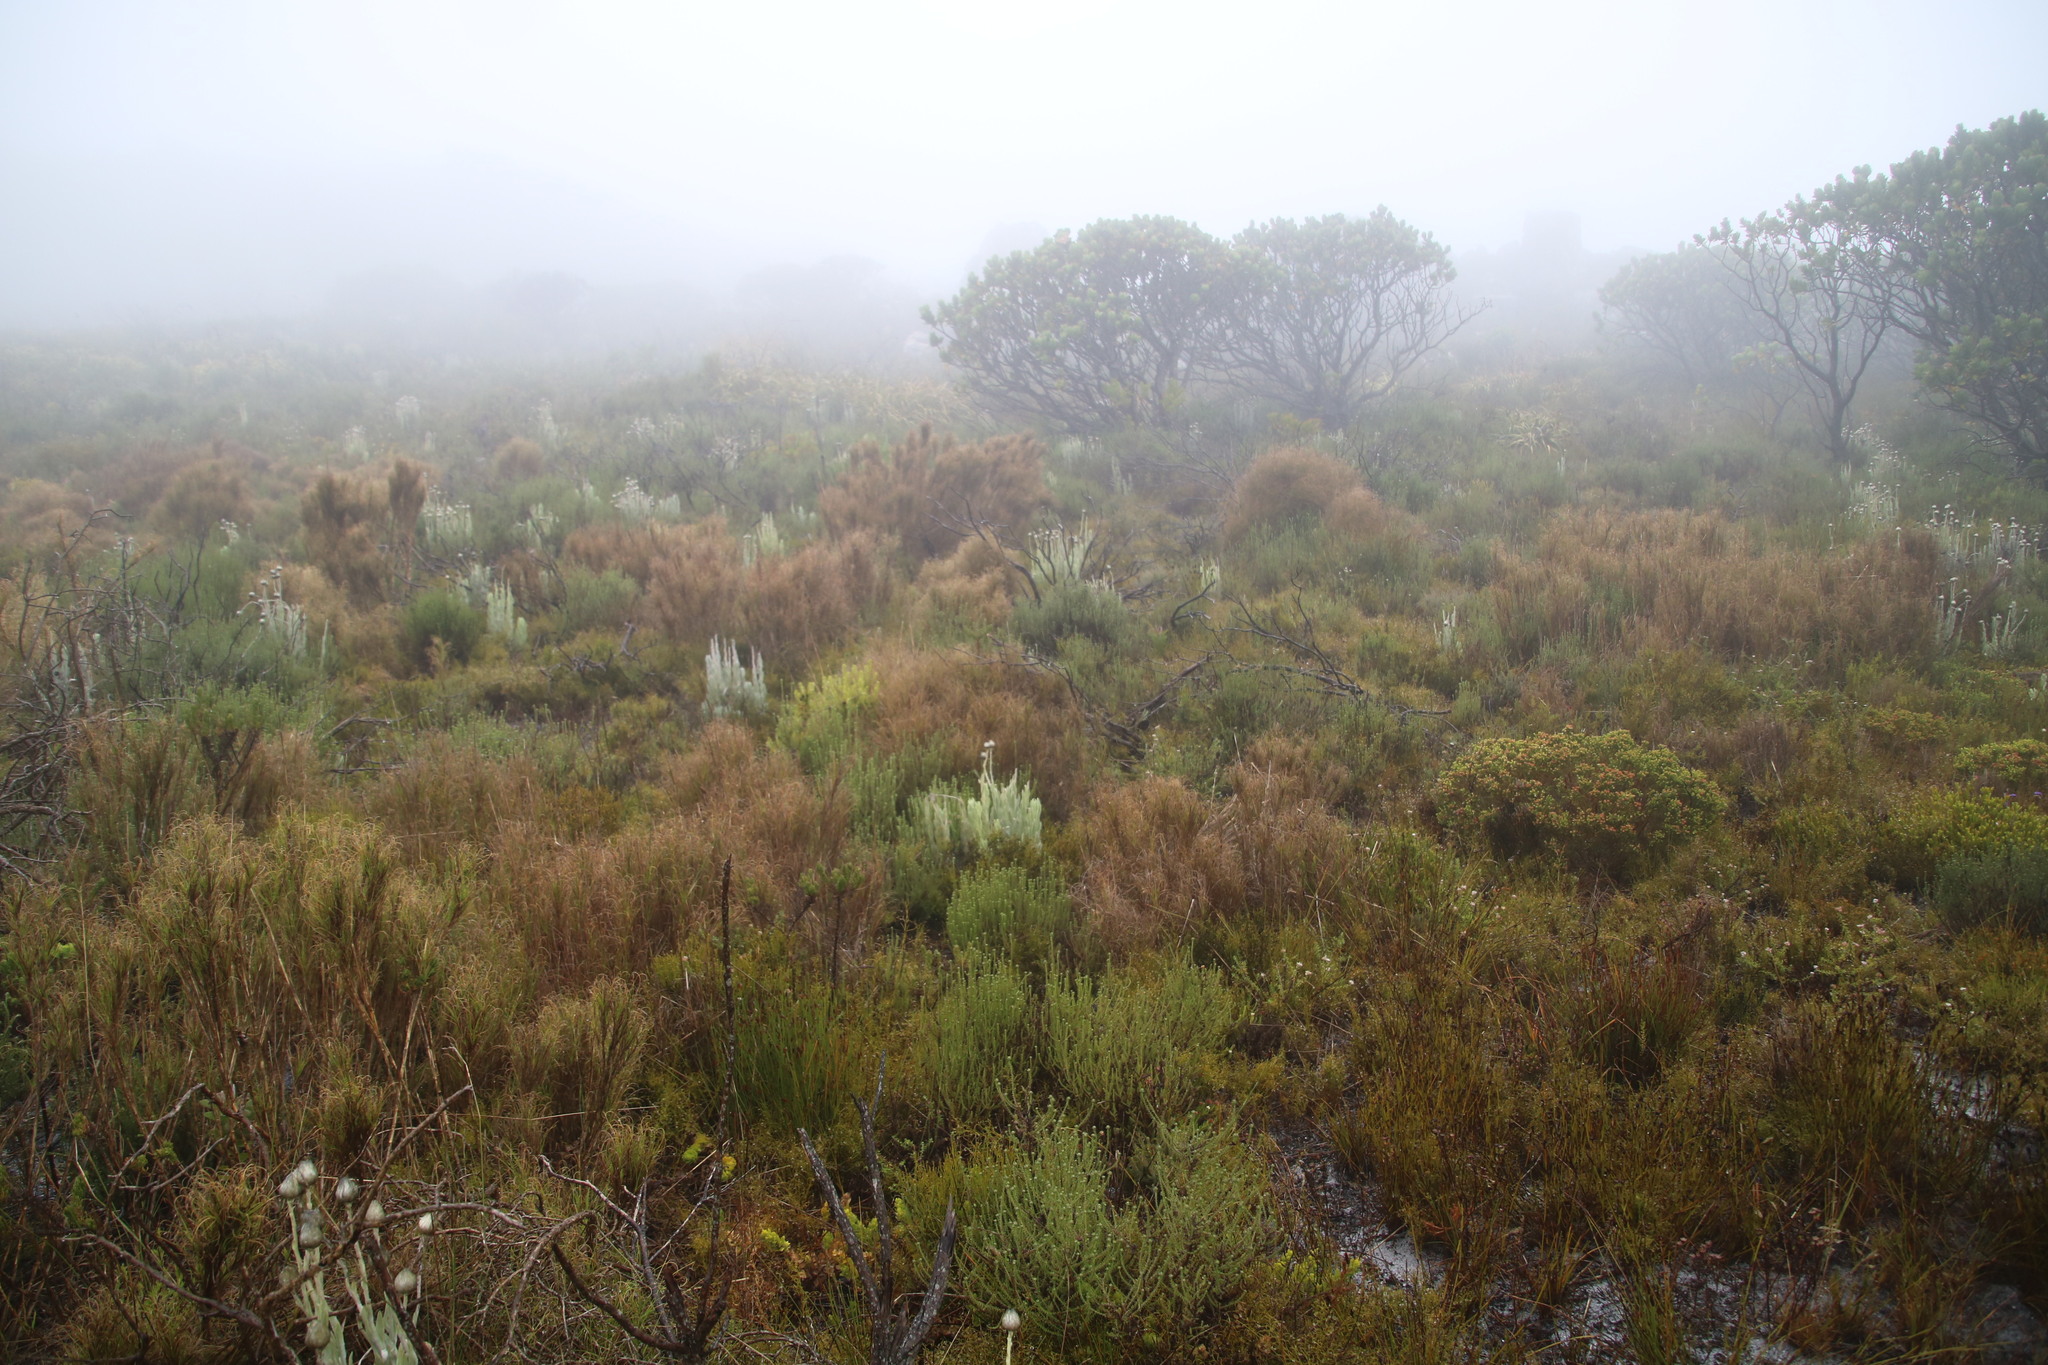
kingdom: Plantae
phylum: Tracheophyta
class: Liliopsida
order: Poales
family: Poaceae
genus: Pseudopentameris
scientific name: Pseudopentameris macrantha
